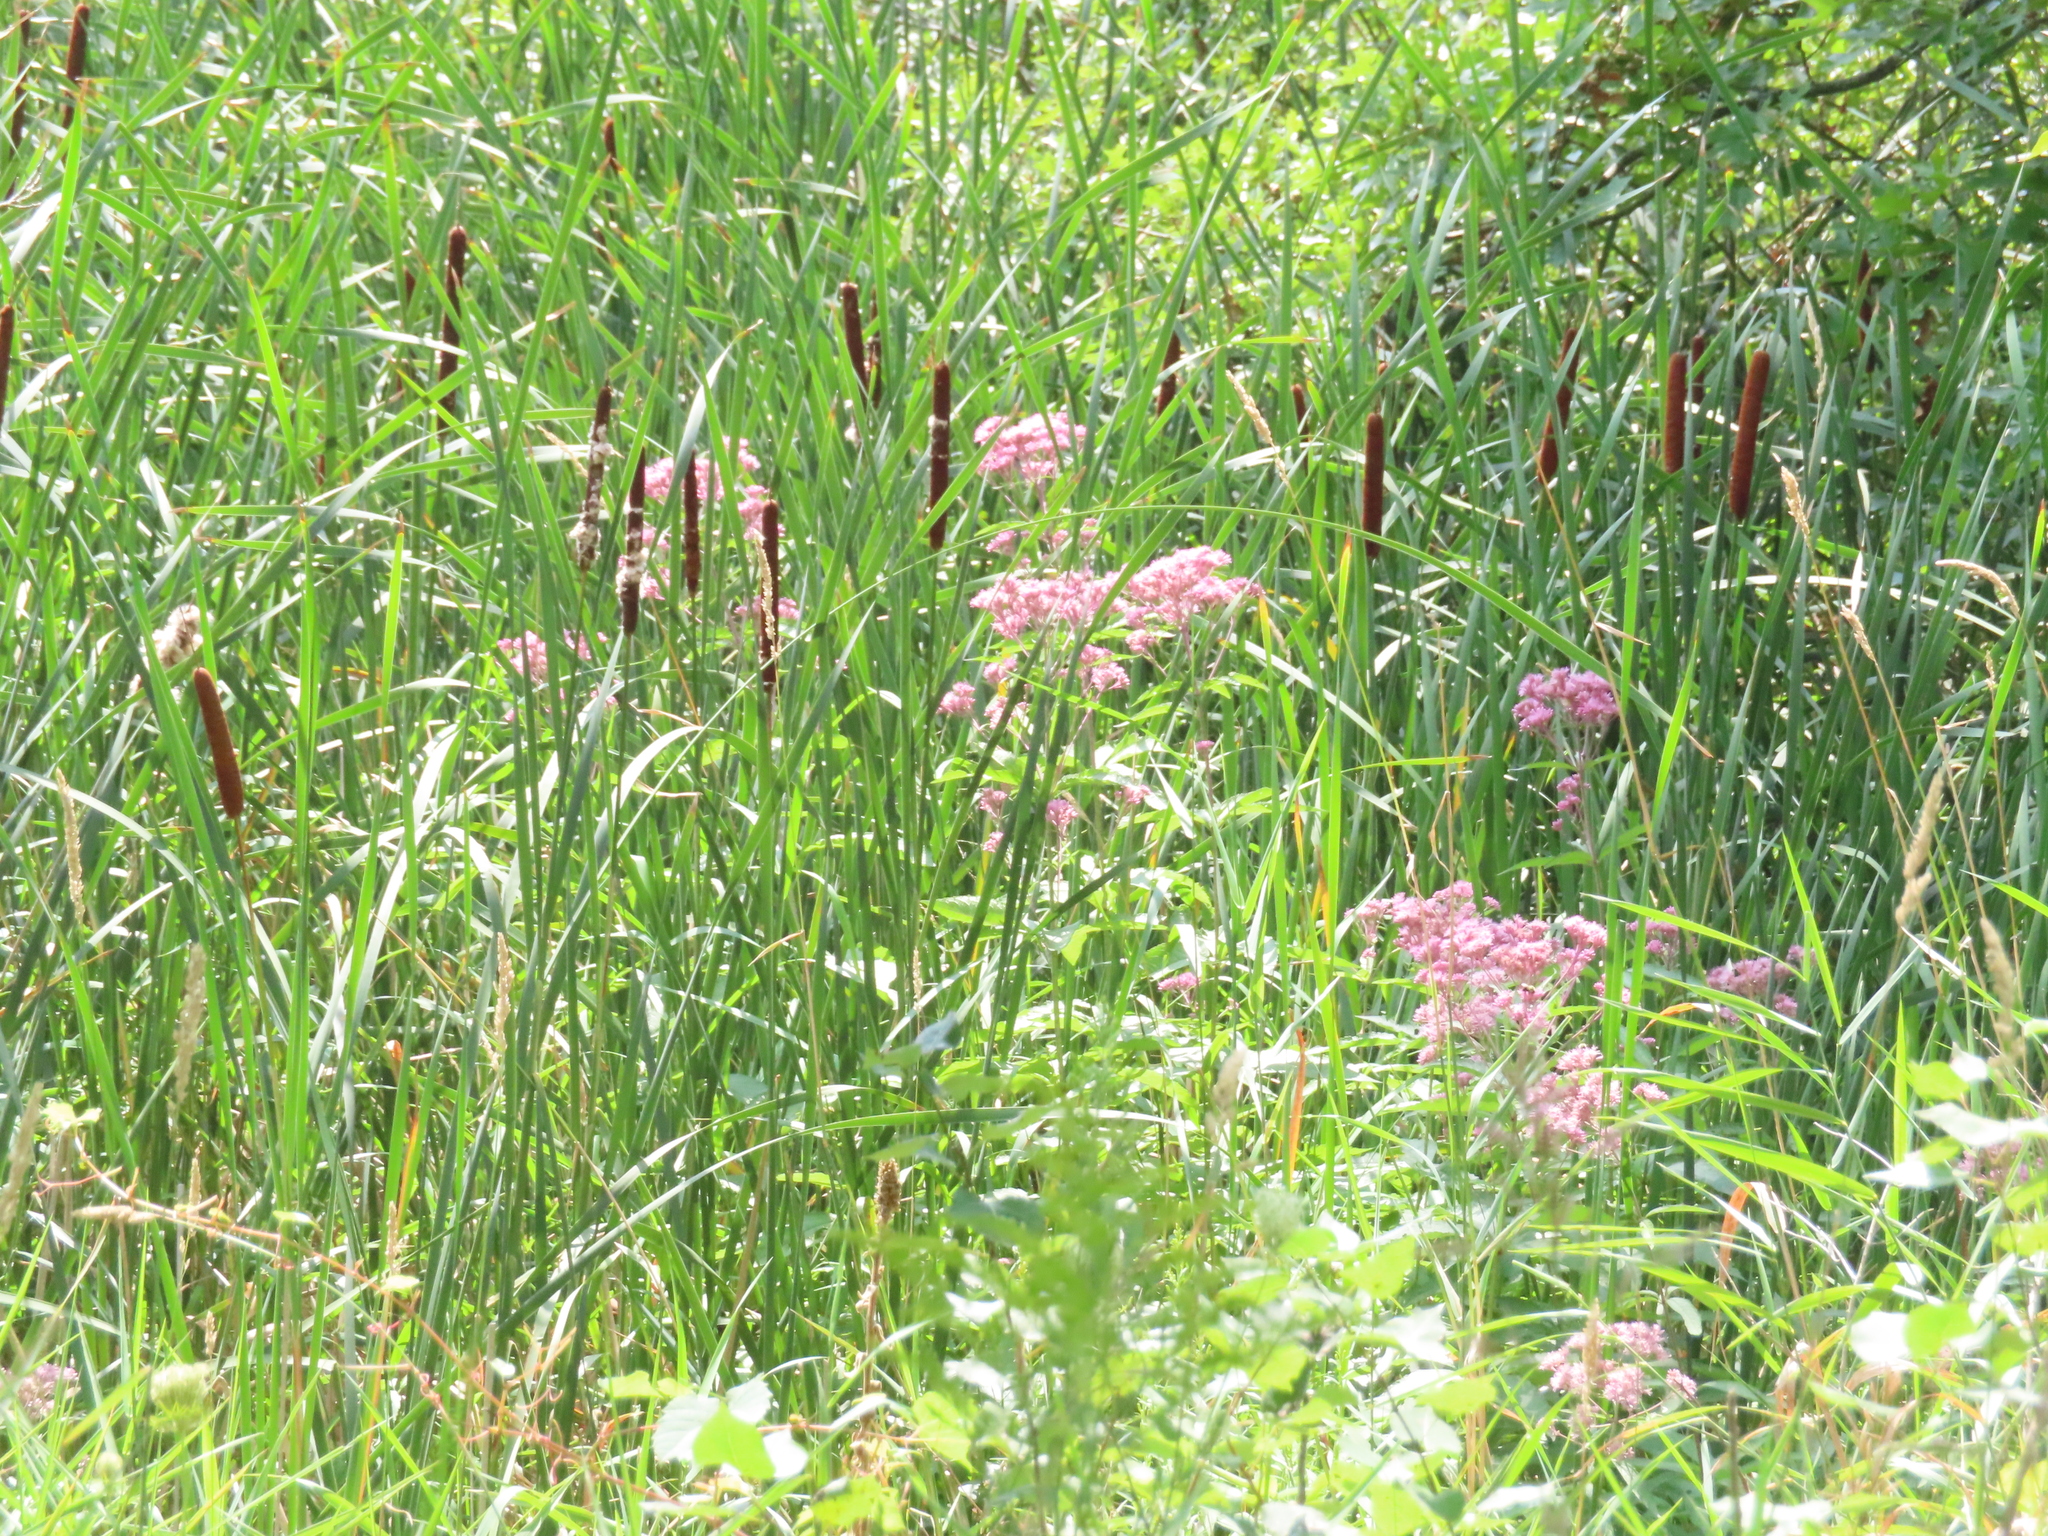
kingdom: Plantae
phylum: Tracheophyta
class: Magnoliopsida
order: Asterales
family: Asteraceae
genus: Eutrochium
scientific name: Eutrochium maculatum
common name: Spotted joe pye weed
